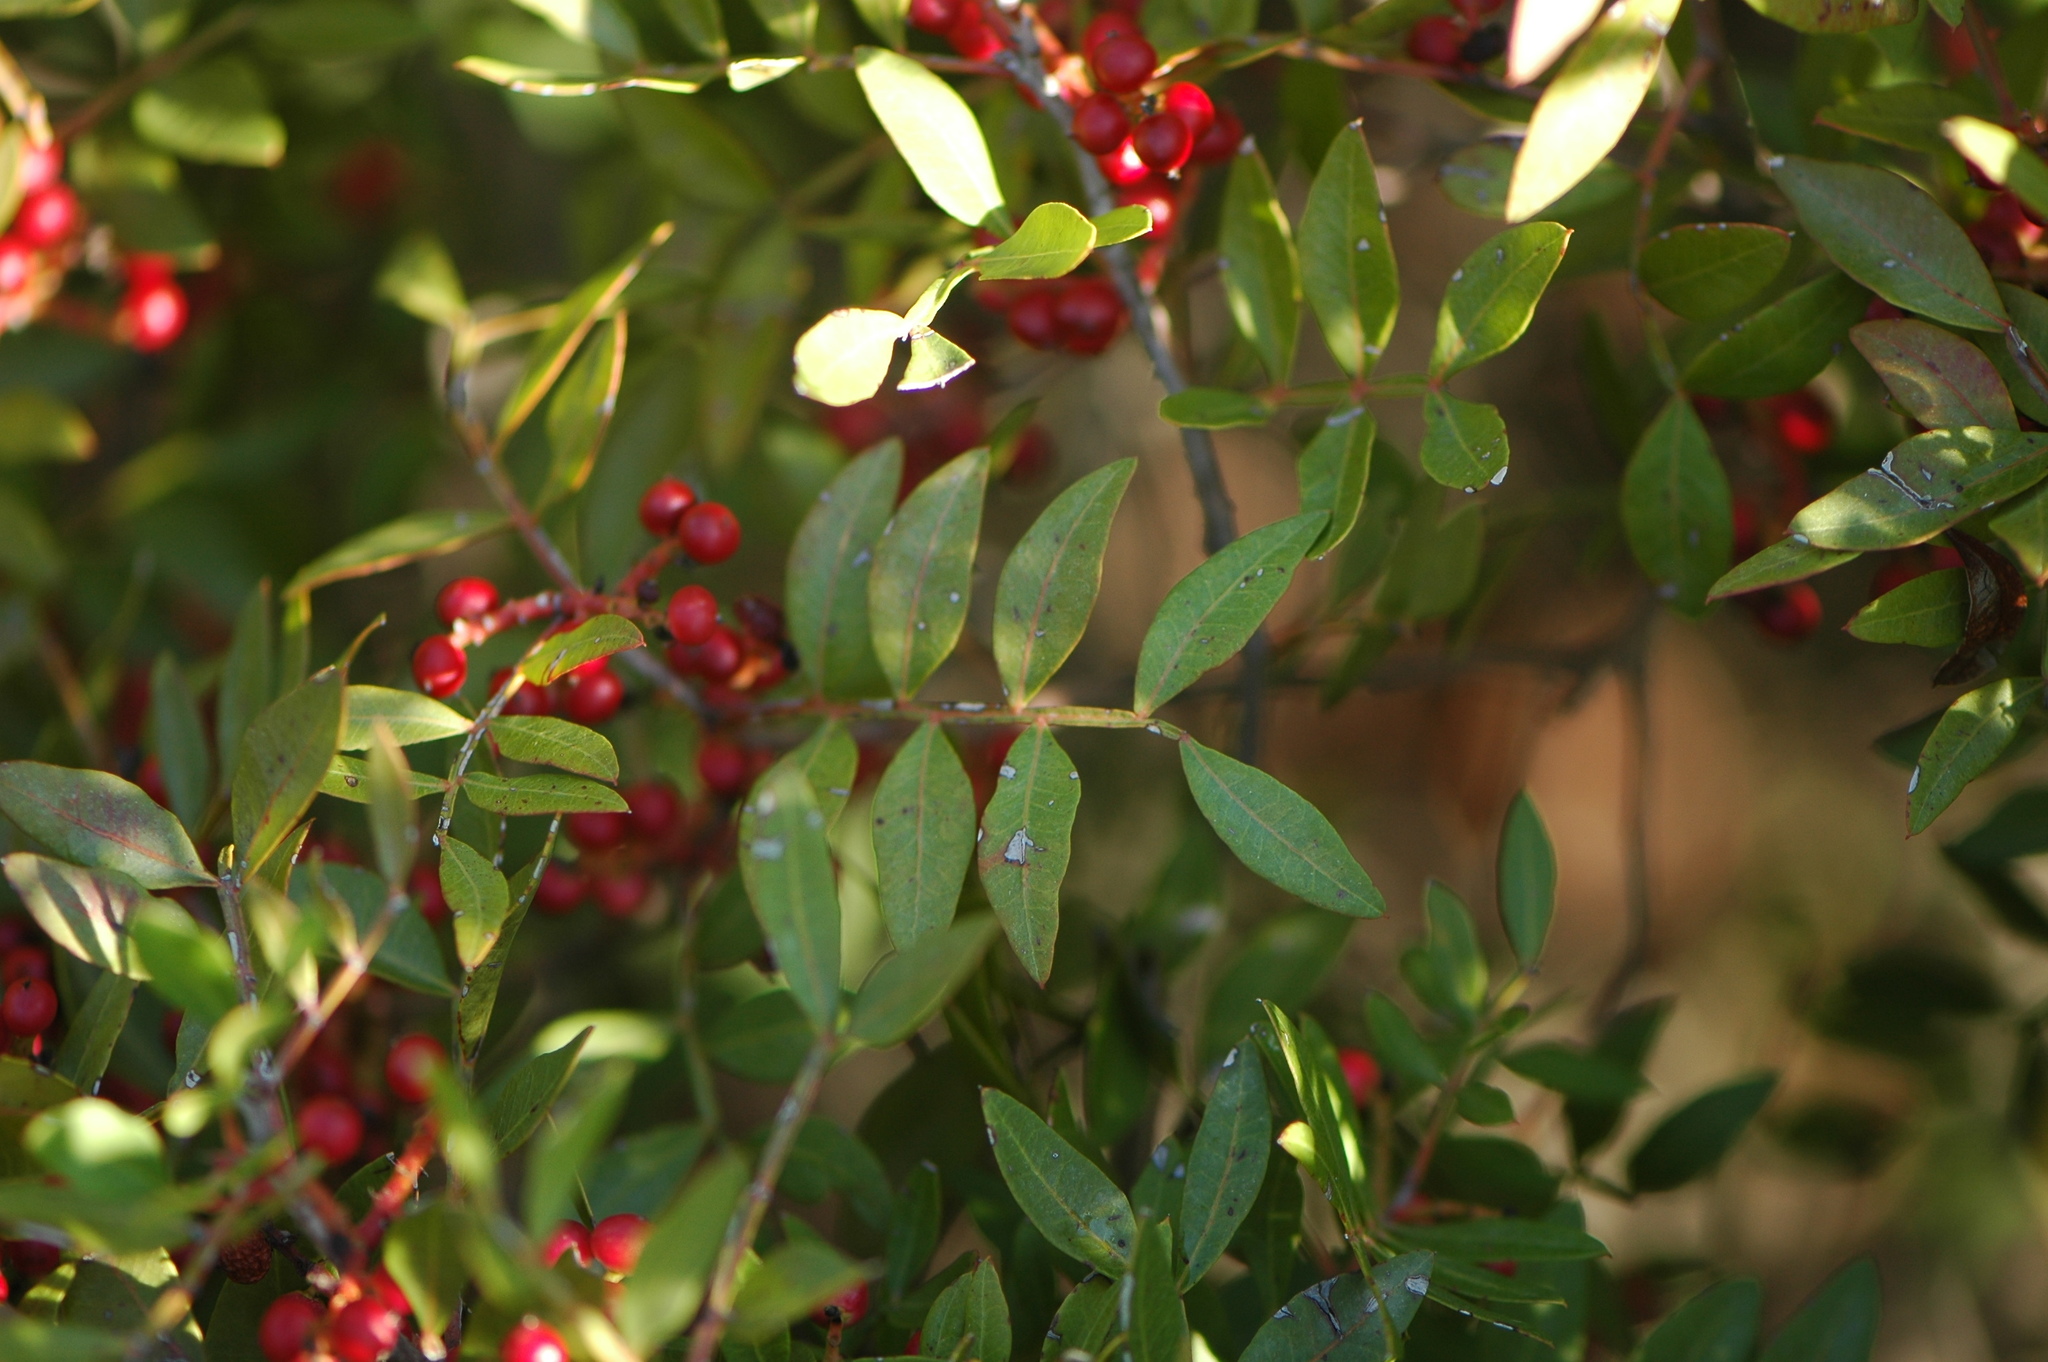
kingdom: Plantae
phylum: Tracheophyta
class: Magnoliopsida
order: Sapindales
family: Anacardiaceae
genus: Pistacia
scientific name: Pistacia lentiscus
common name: Lentisk
